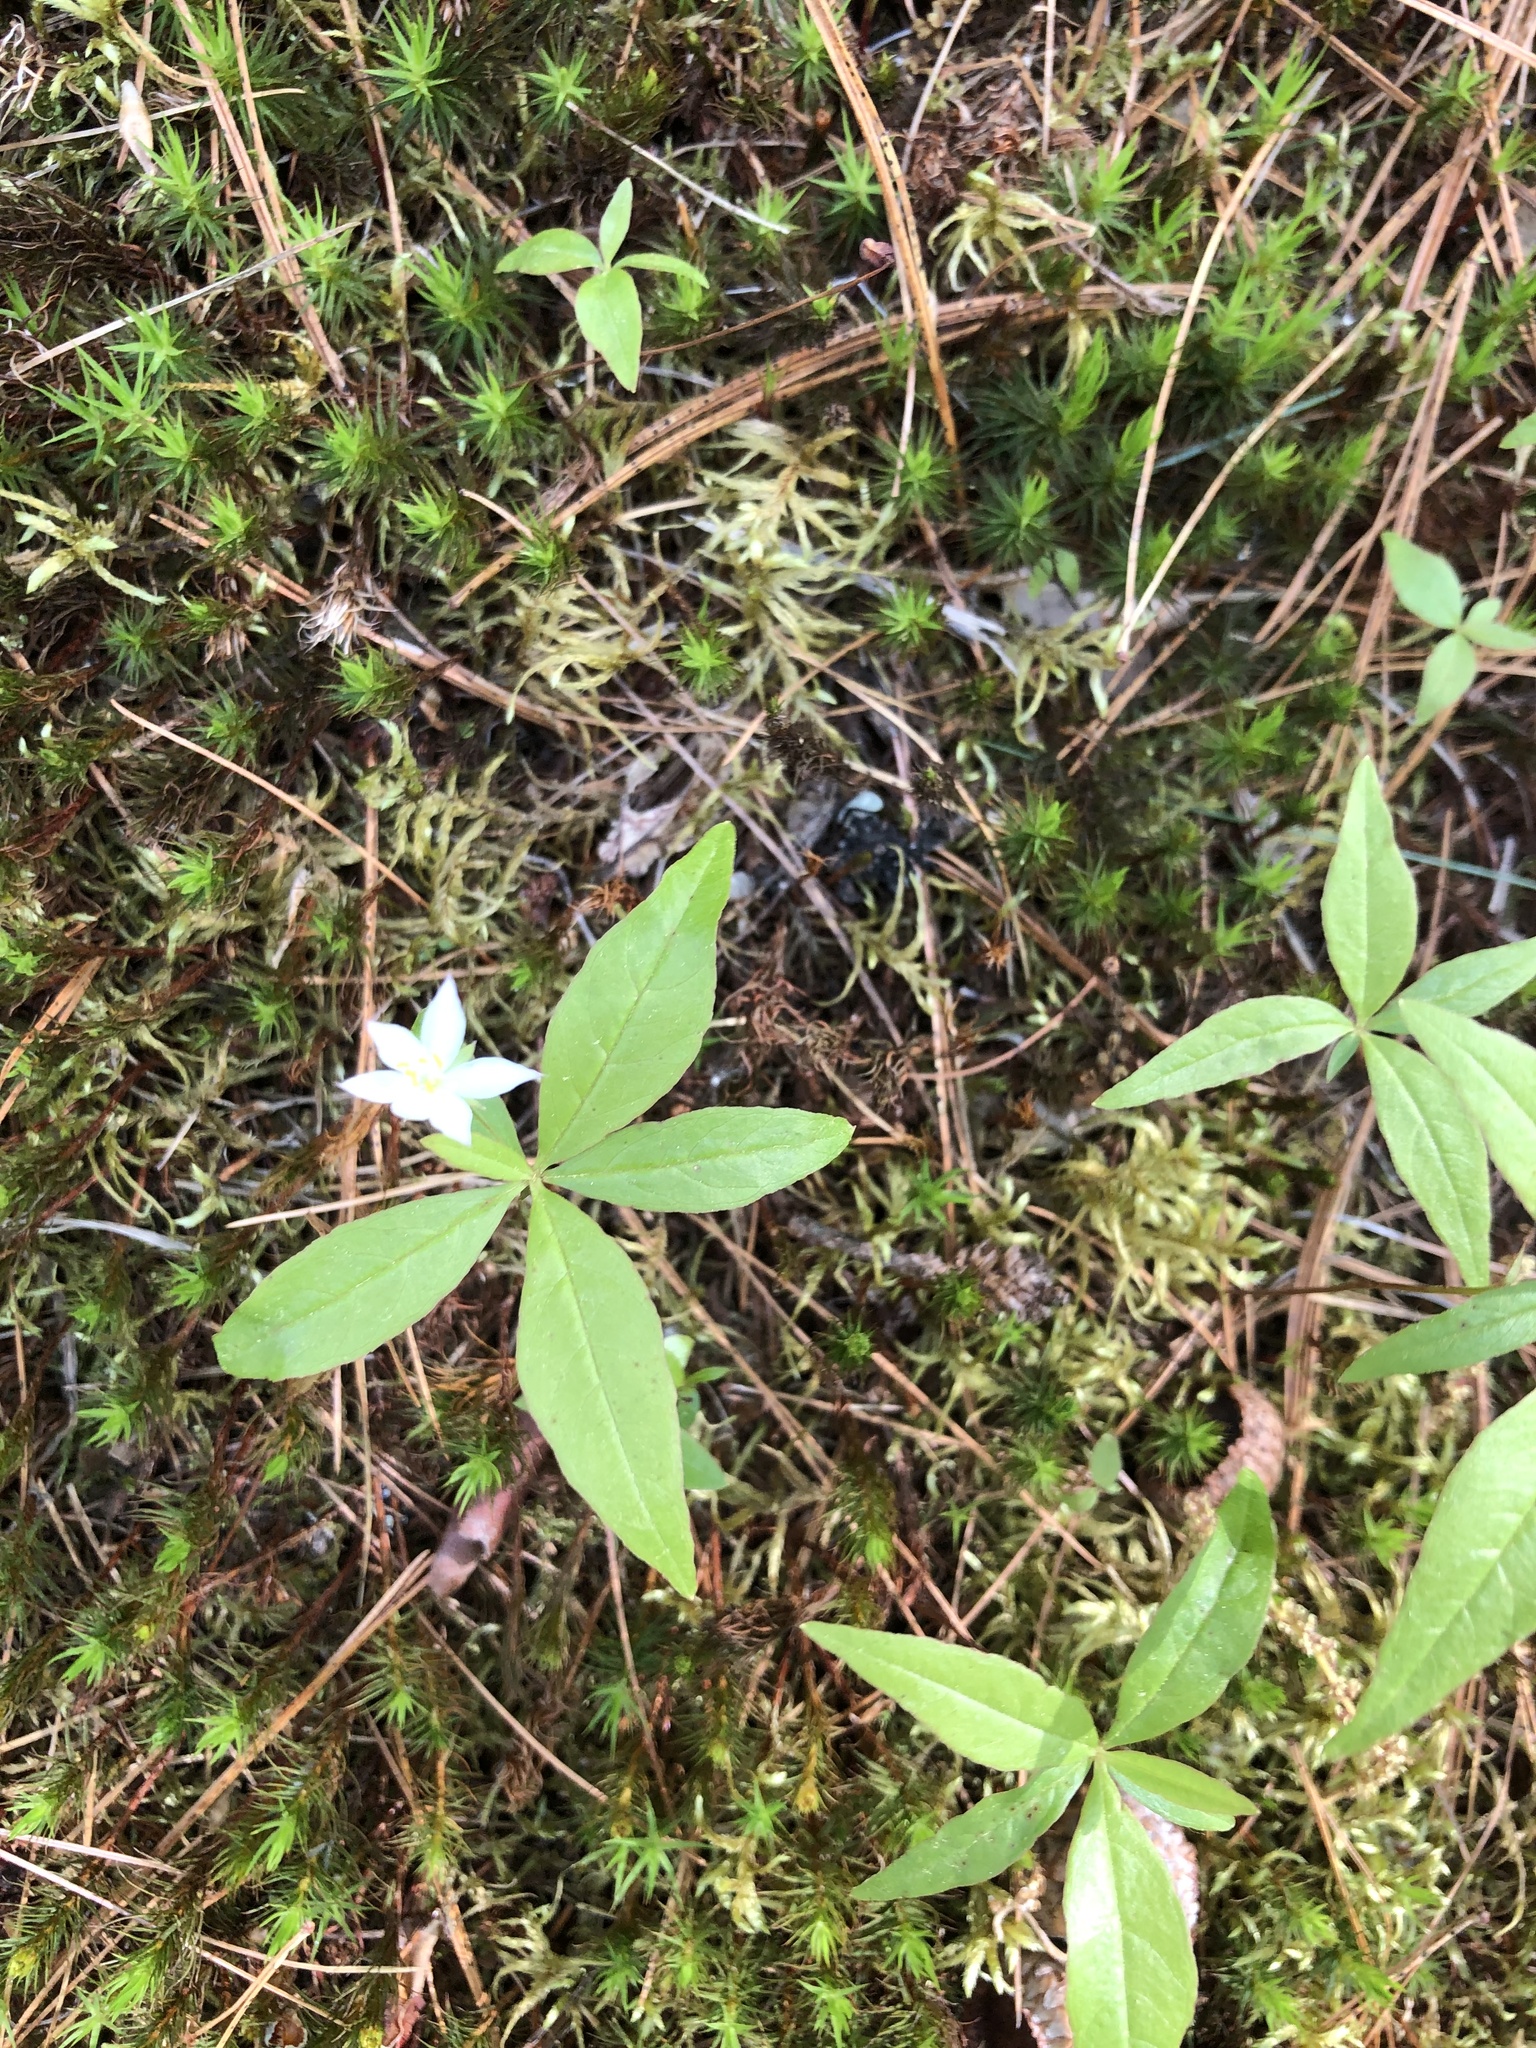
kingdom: Plantae
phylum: Tracheophyta
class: Magnoliopsida
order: Ericales
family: Primulaceae
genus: Lysimachia
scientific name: Lysimachia borealis
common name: American starflower
